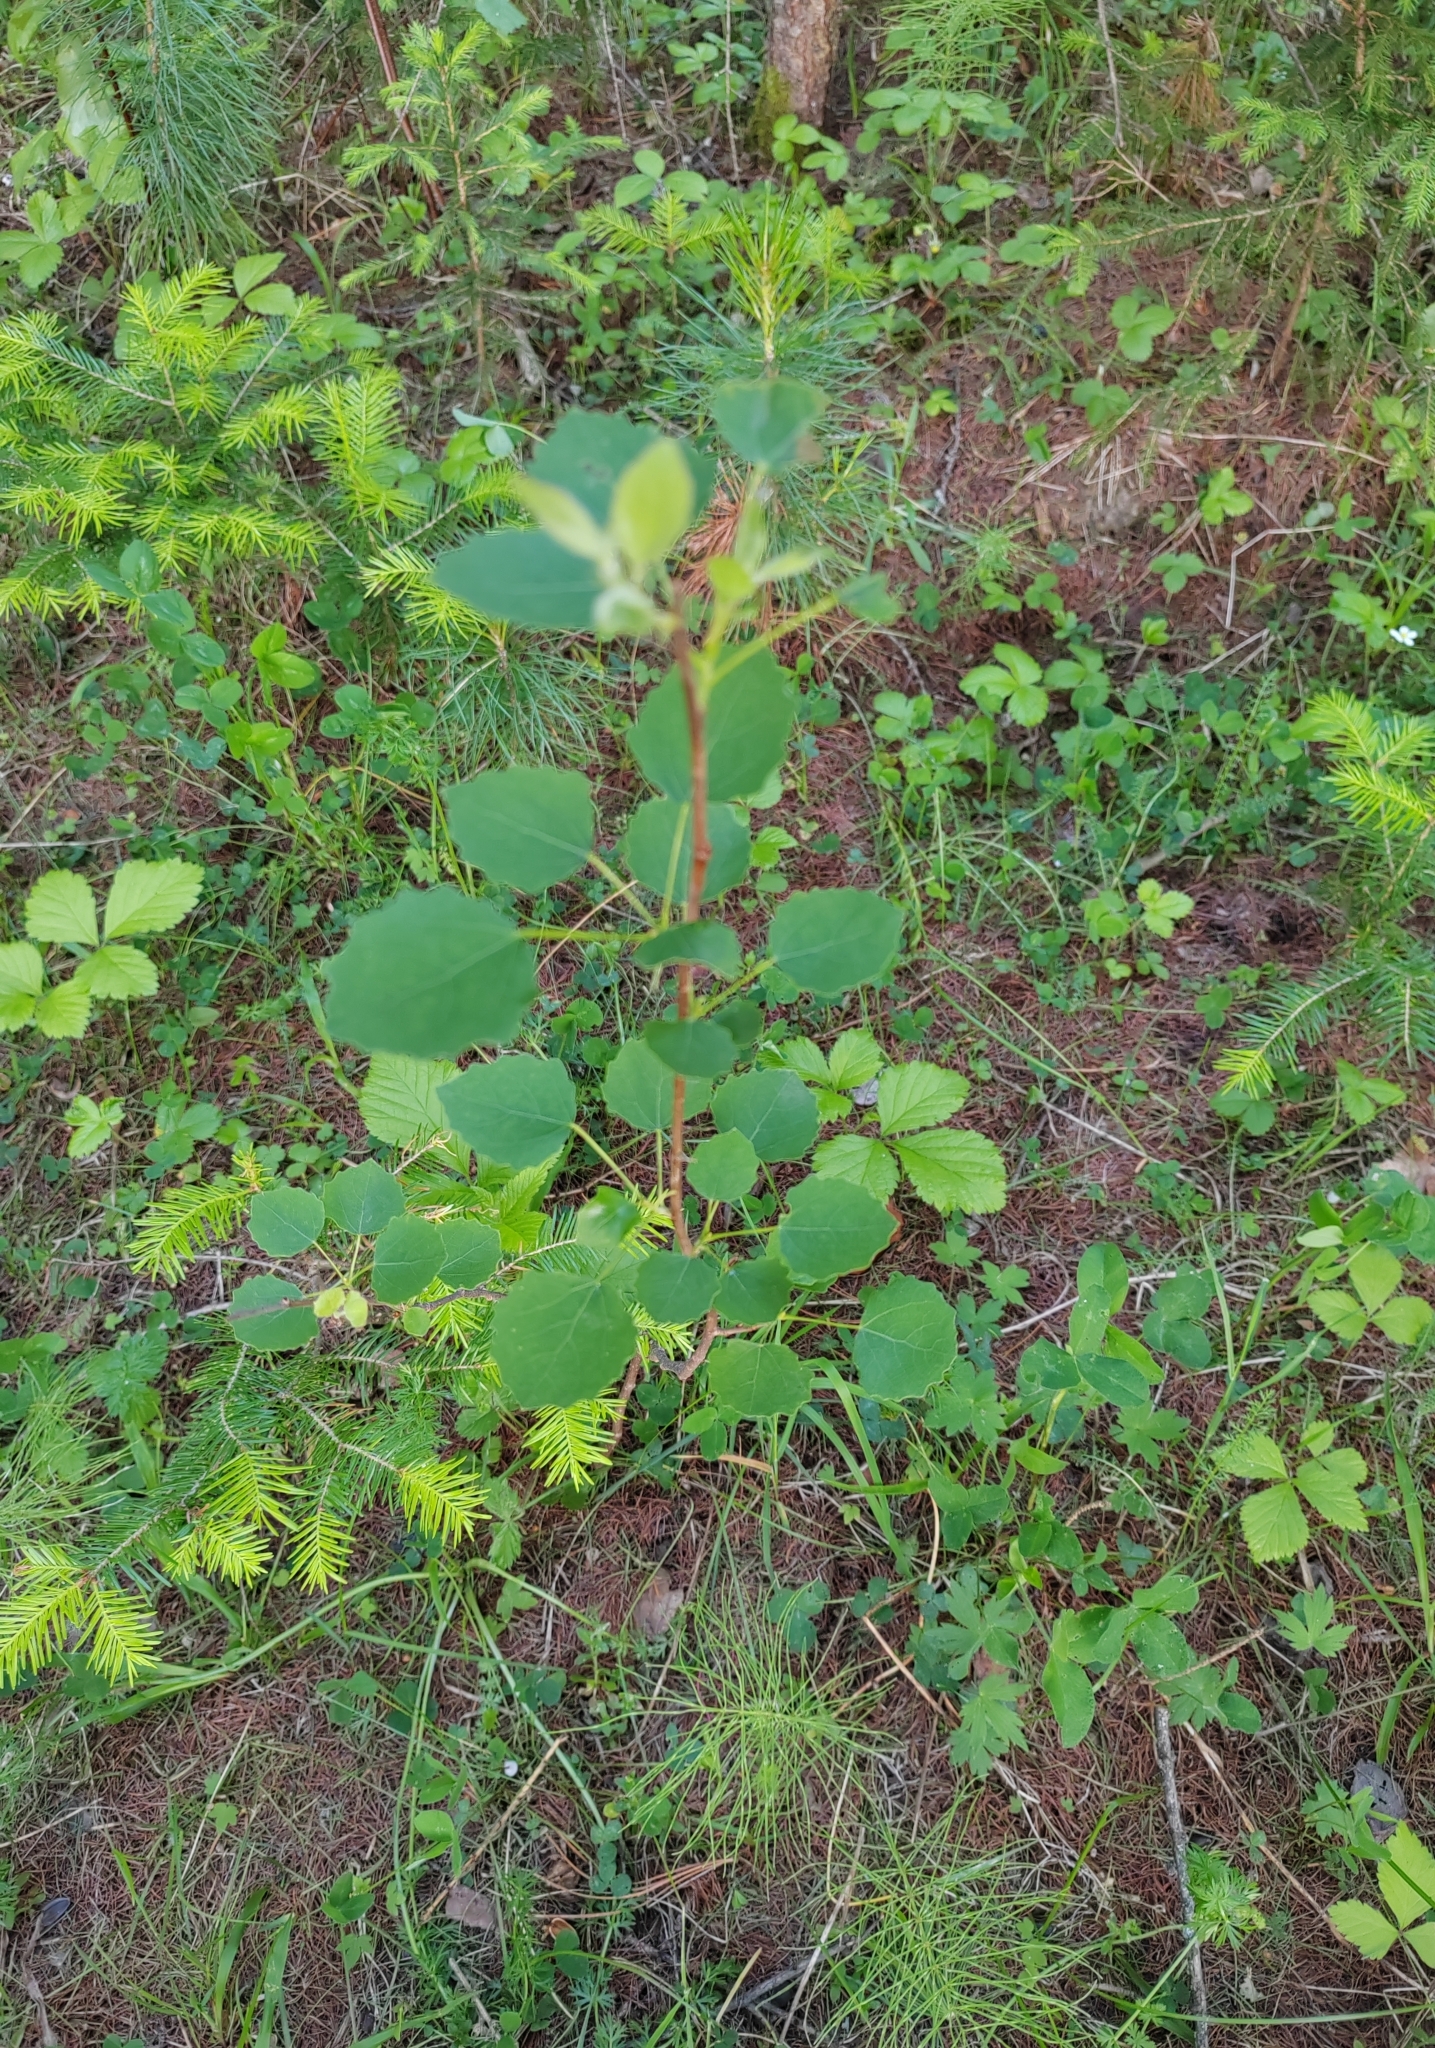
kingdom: Plantae
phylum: Tracheophyta
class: Magnoliopsida
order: Malpighiales
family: Salicaceae
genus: Populus
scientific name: Populus tremula
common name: European aspen
